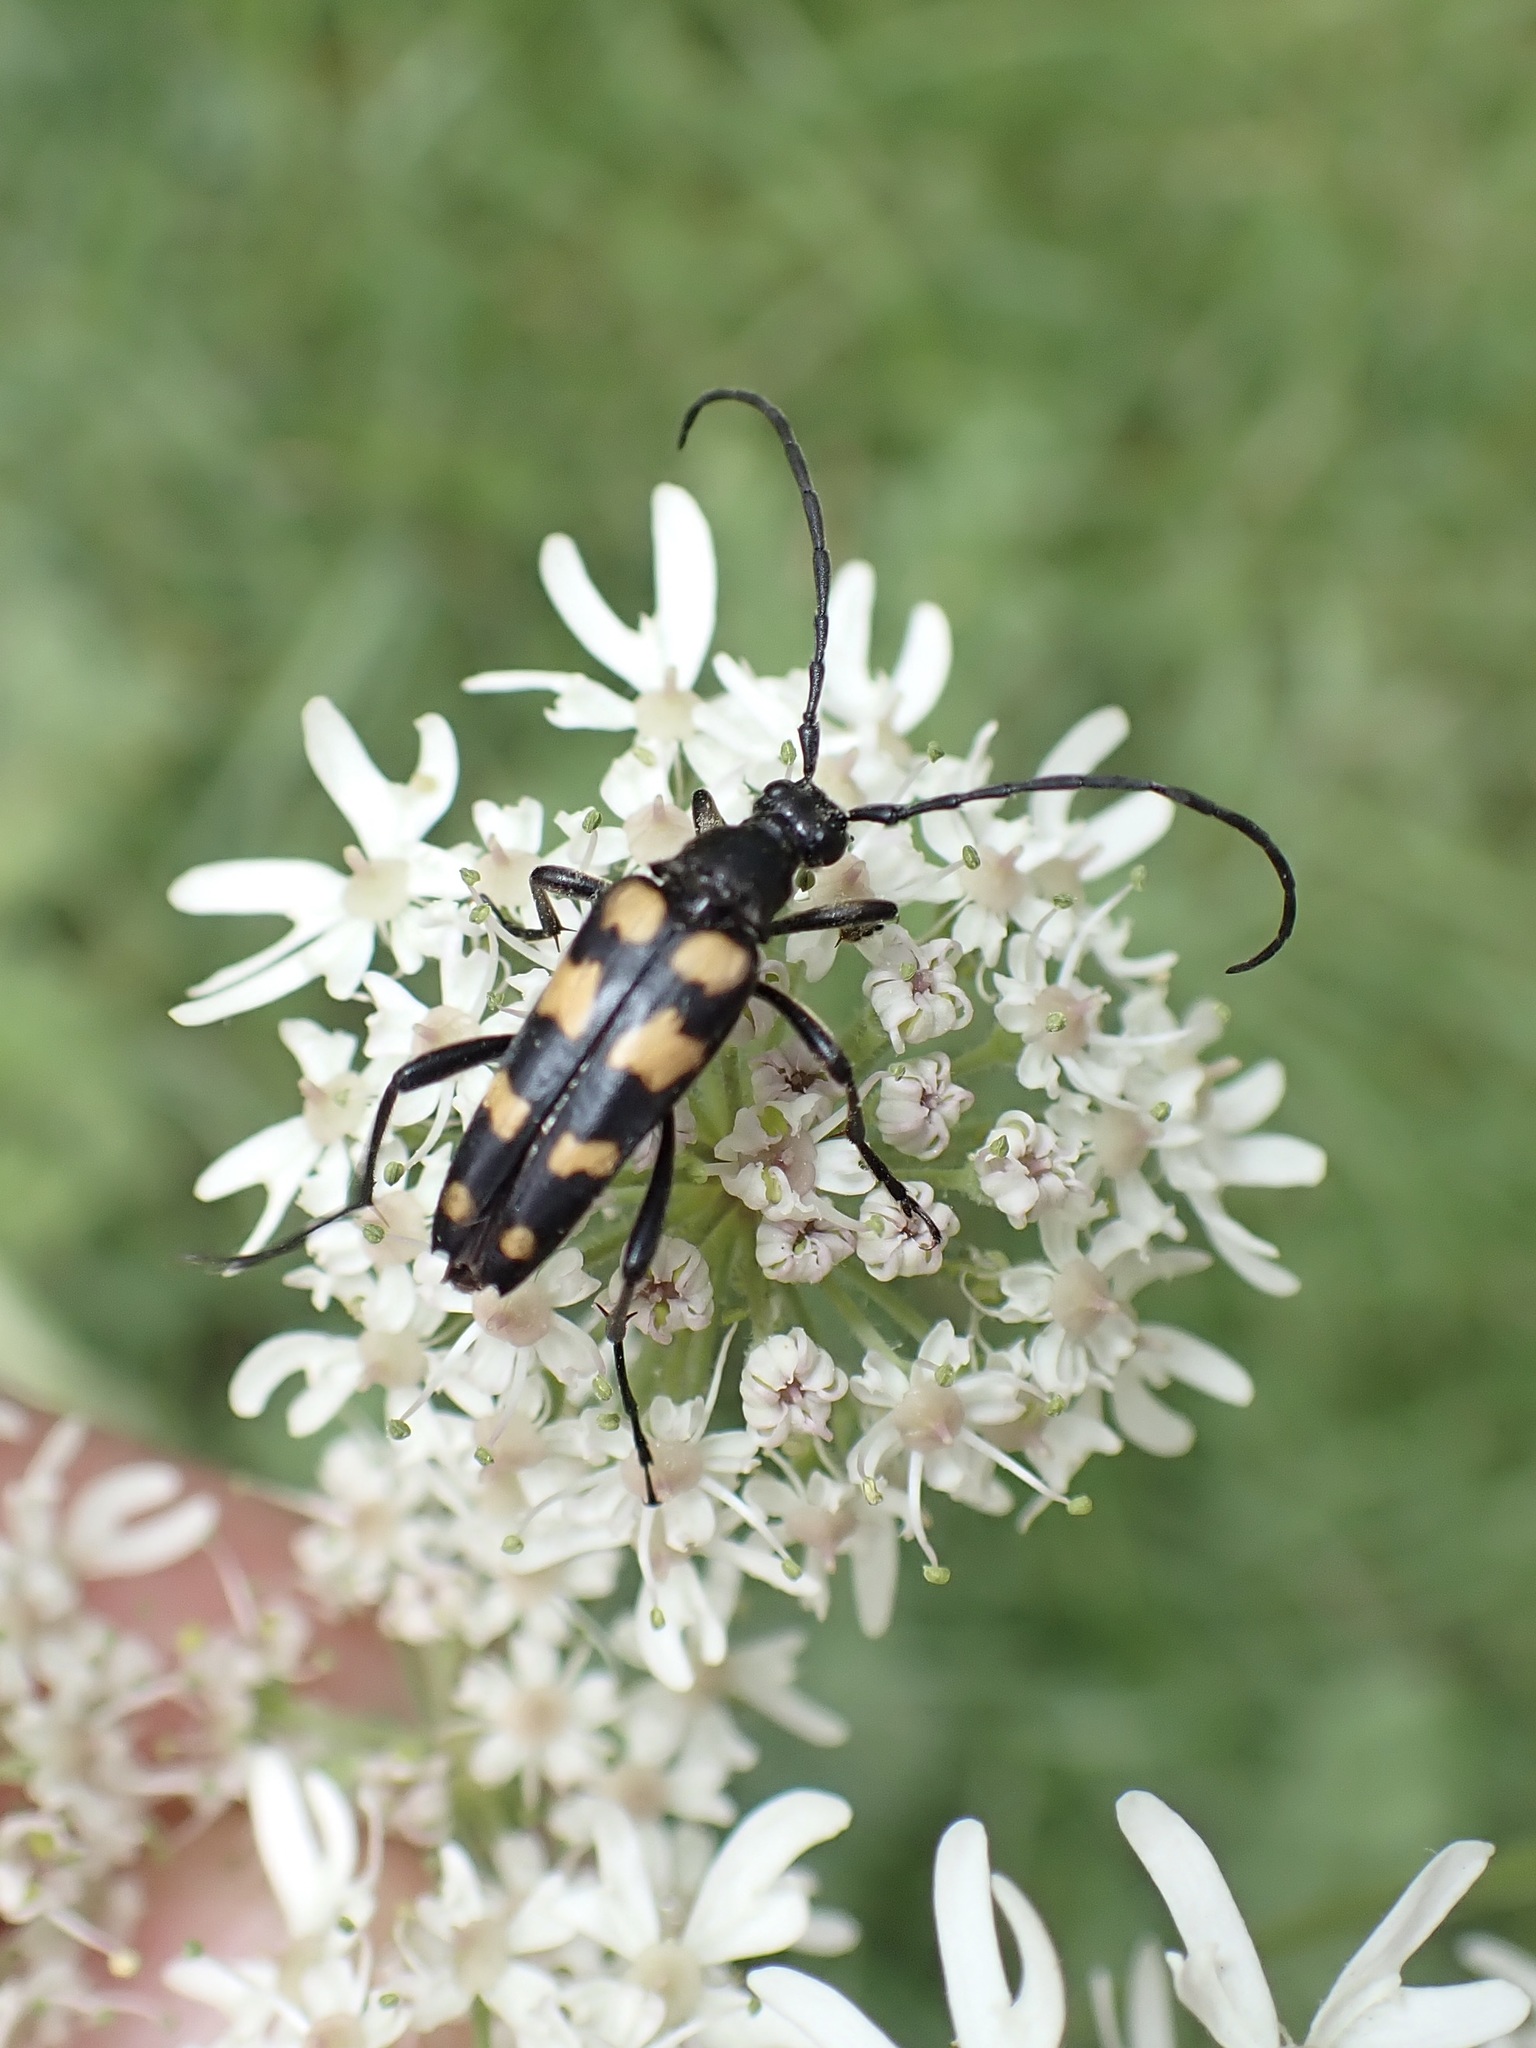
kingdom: Animalia
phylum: Arthropoda
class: Insecta
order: Coleoptera
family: Cerambycidae
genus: Leptura
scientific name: Leptura quadrifasciata
